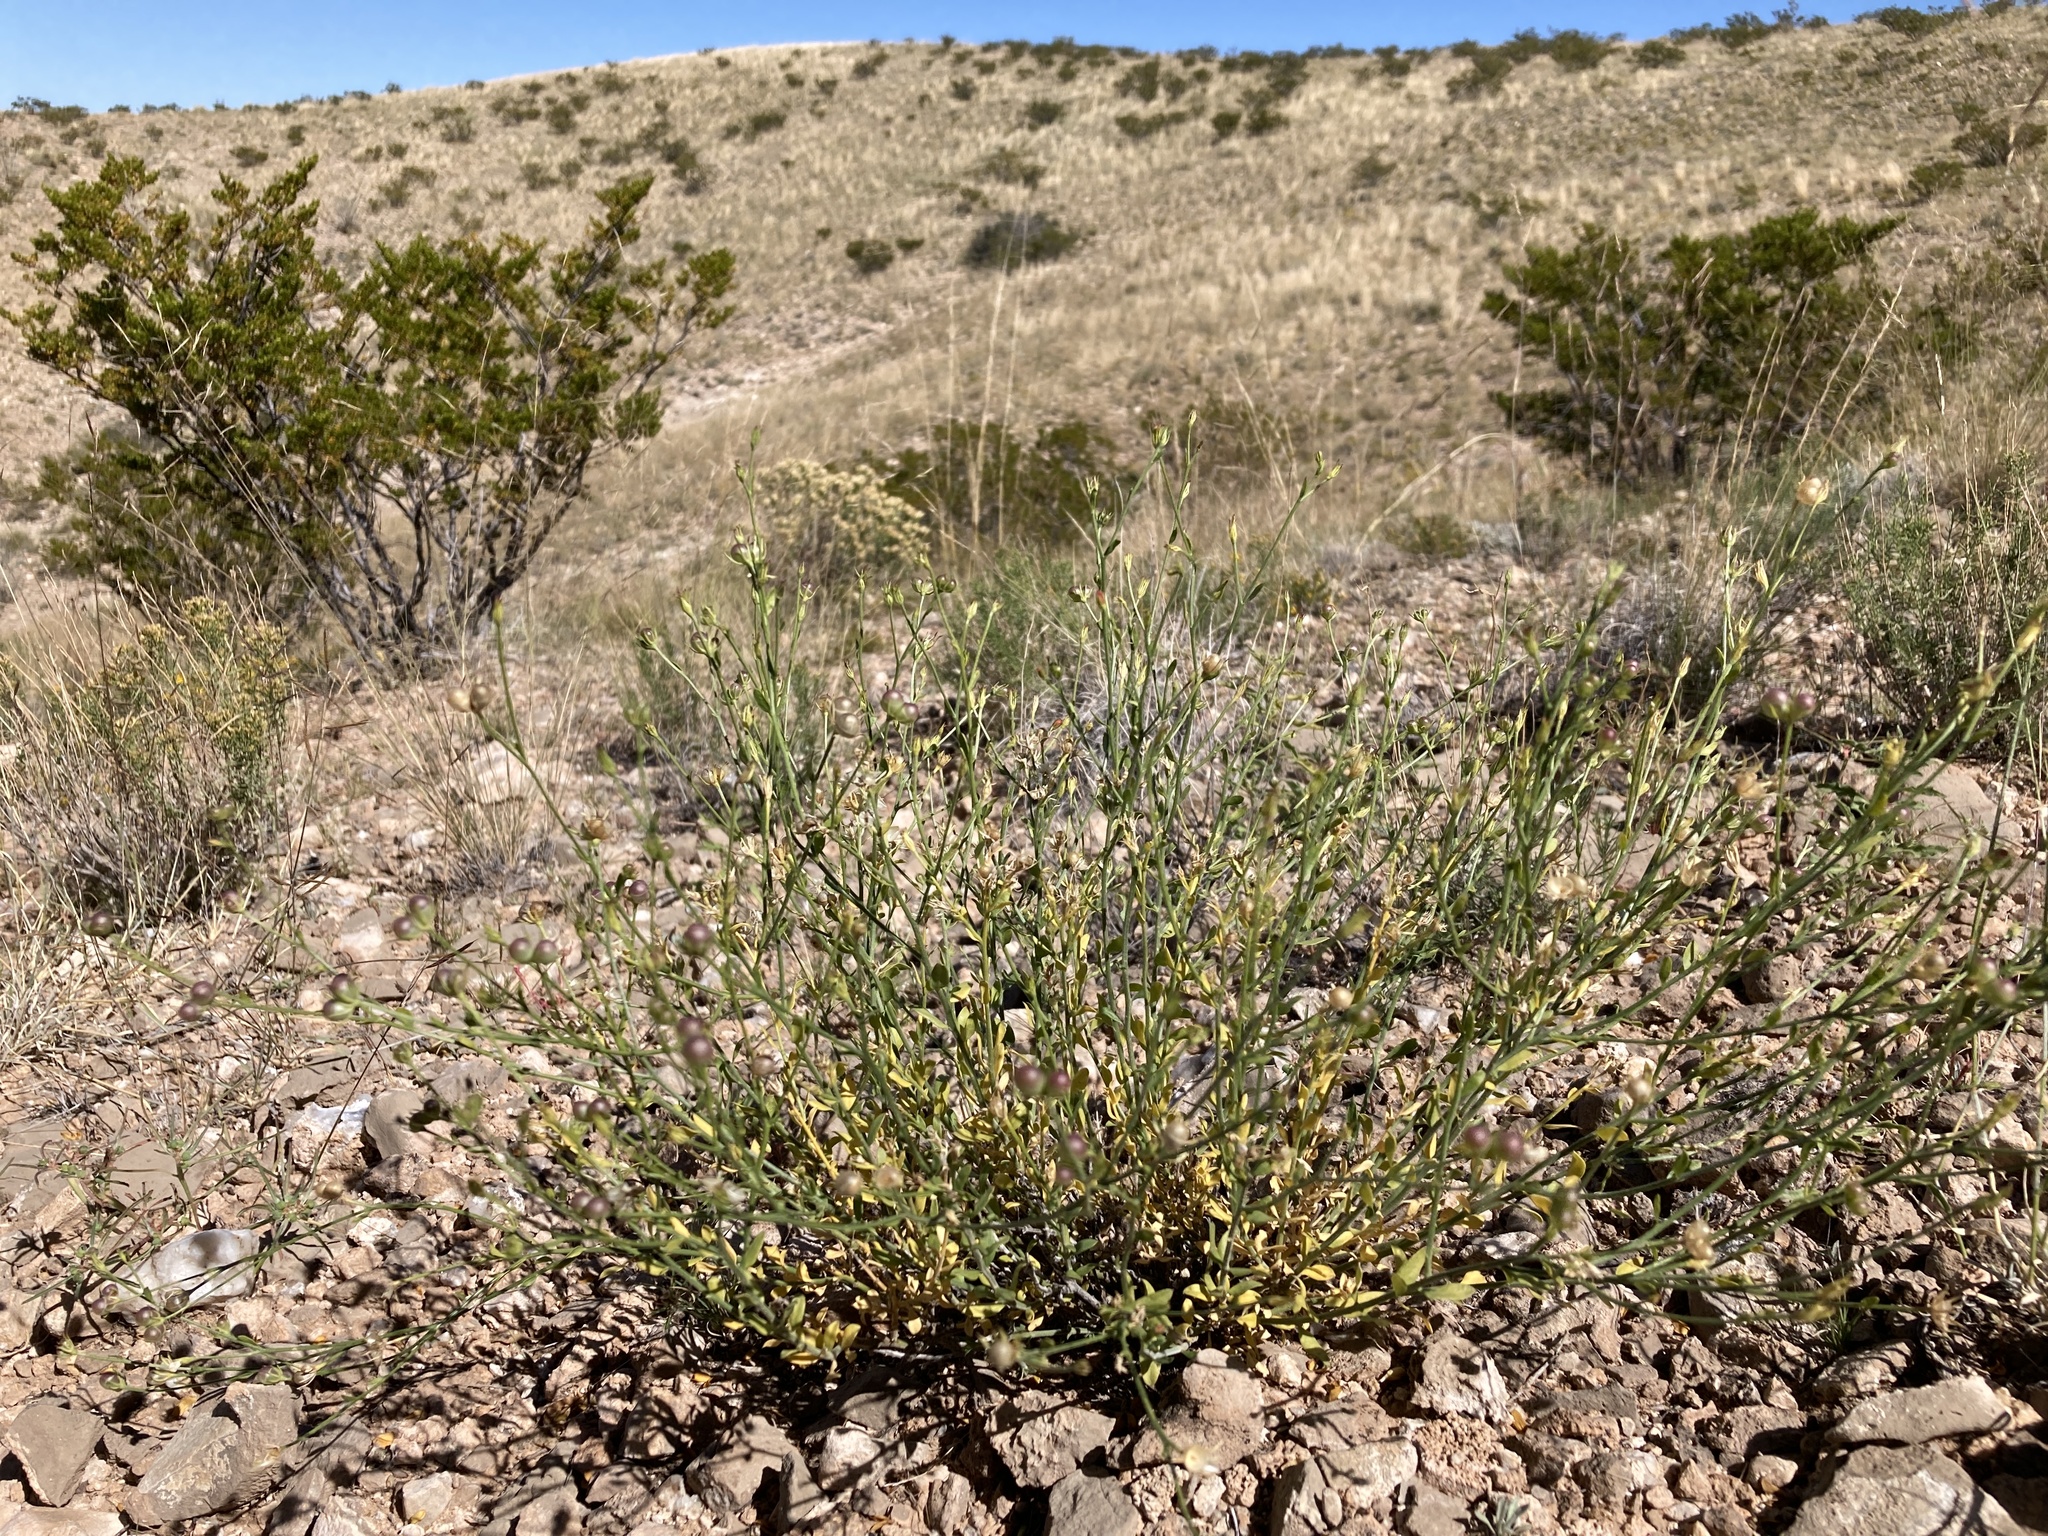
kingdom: Plantae
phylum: Tracheophyta
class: Magnoliopsida
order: Lamiales
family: Oleaceae
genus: Menodora
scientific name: Menodora scabra
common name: Rough menodora
